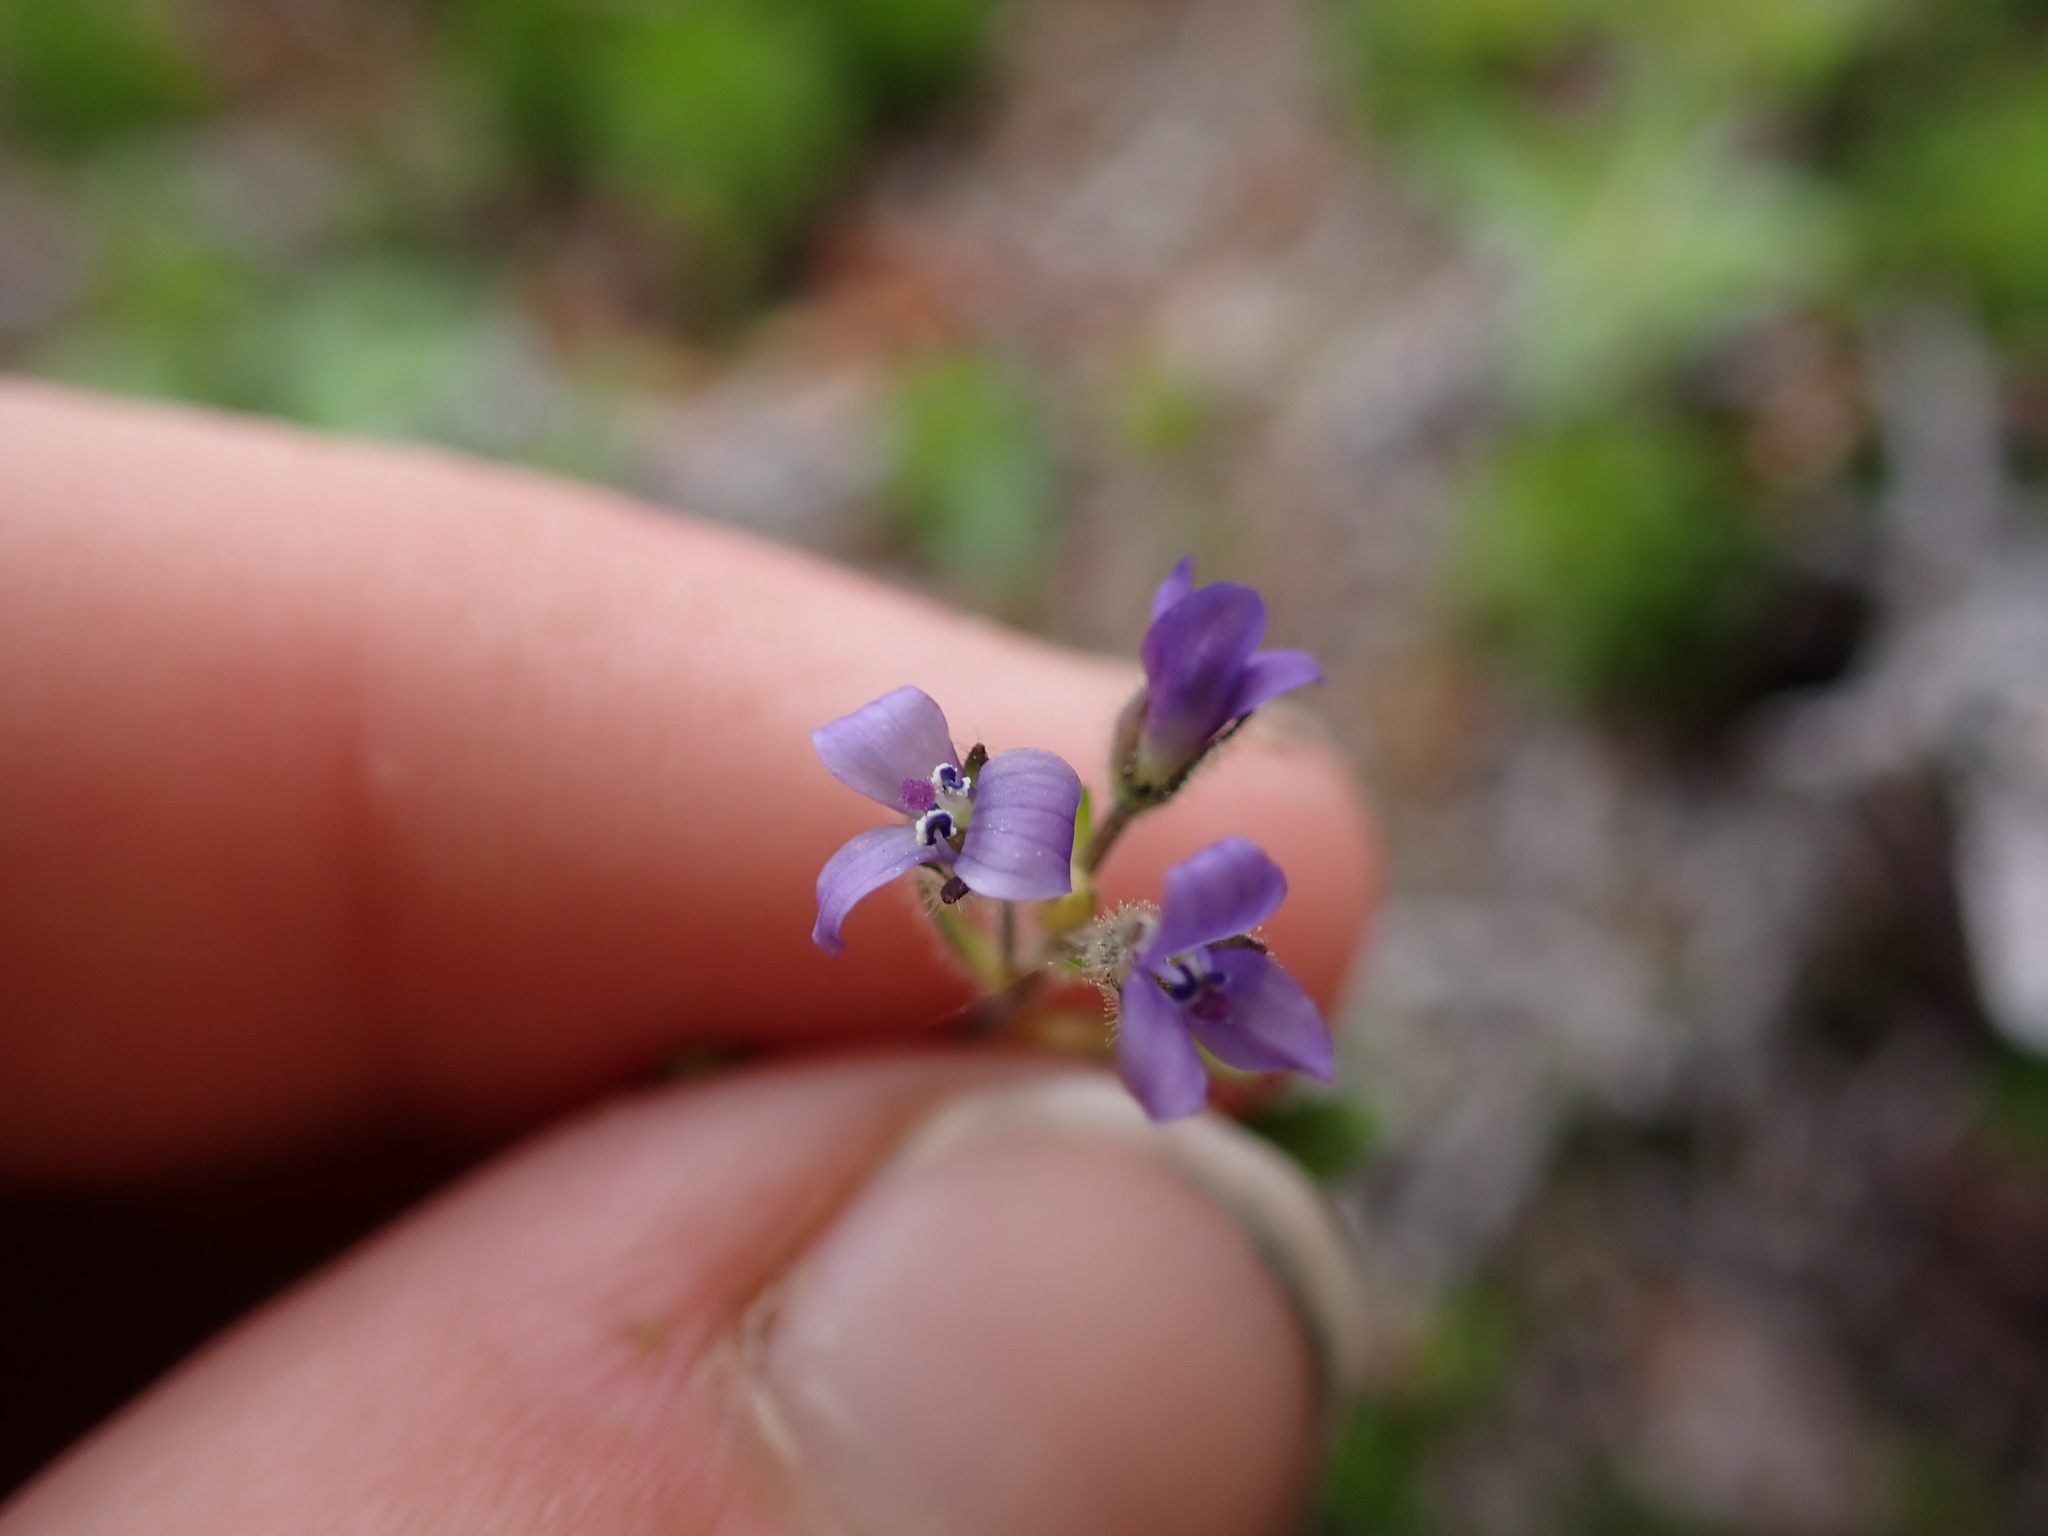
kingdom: Plantae
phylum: Tracheophyta
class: Magnoliopsida
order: Lamiales
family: Plantaginaceae
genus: Veronica
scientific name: Veronica wormskjoldii
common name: American alpine speedwell
